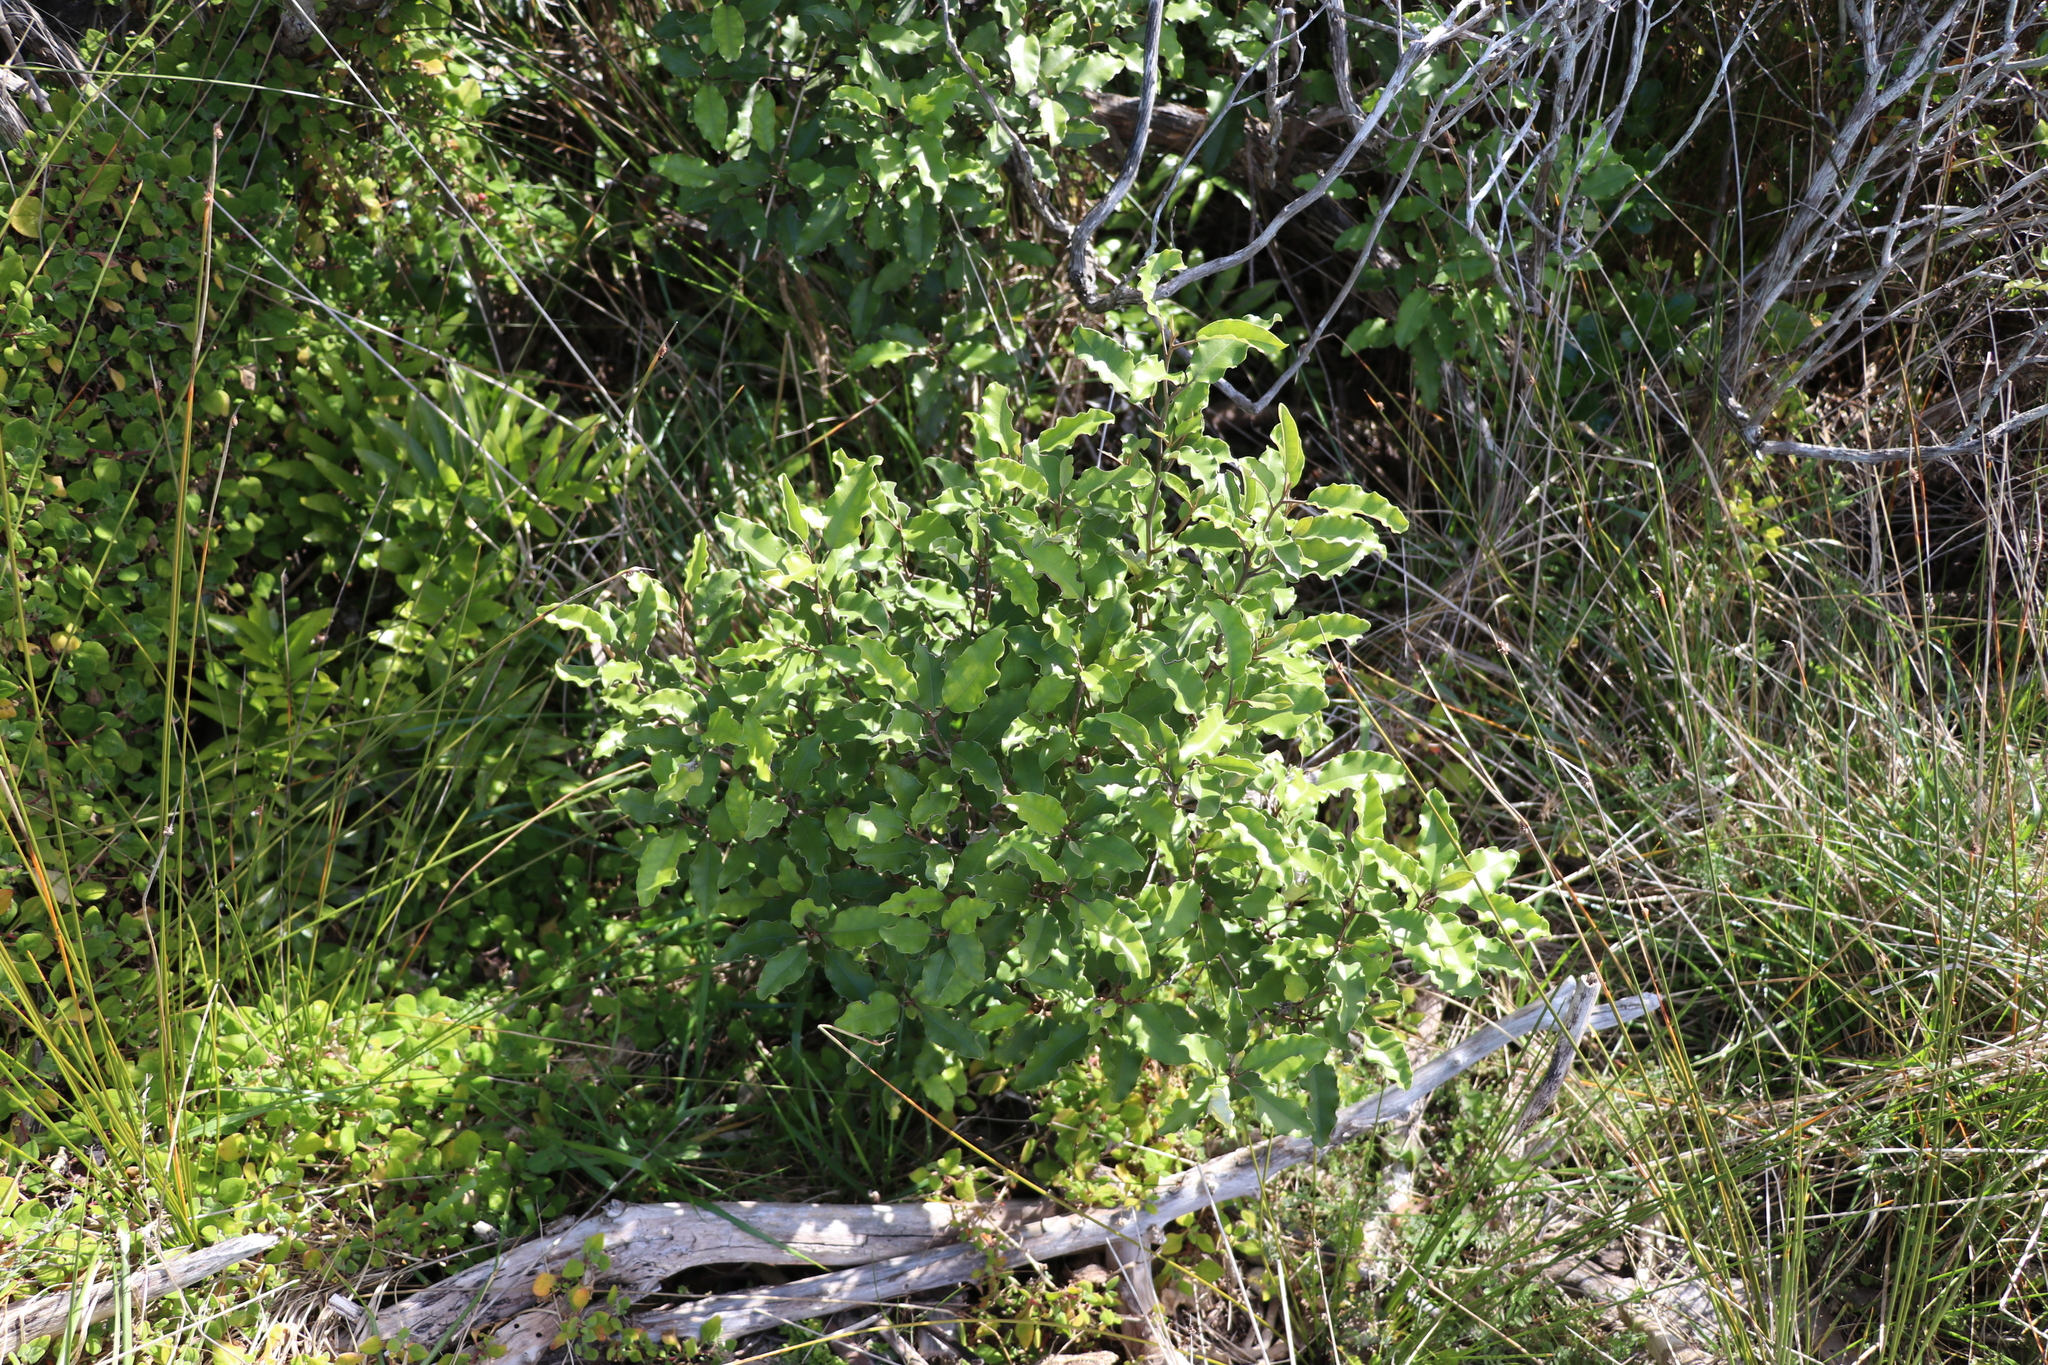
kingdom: Plantae
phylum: Tracheophyta
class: Magnoliopsida
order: Asterales
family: Asteraceae
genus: Olearia
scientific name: Olearia paniculata
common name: Akiraho
